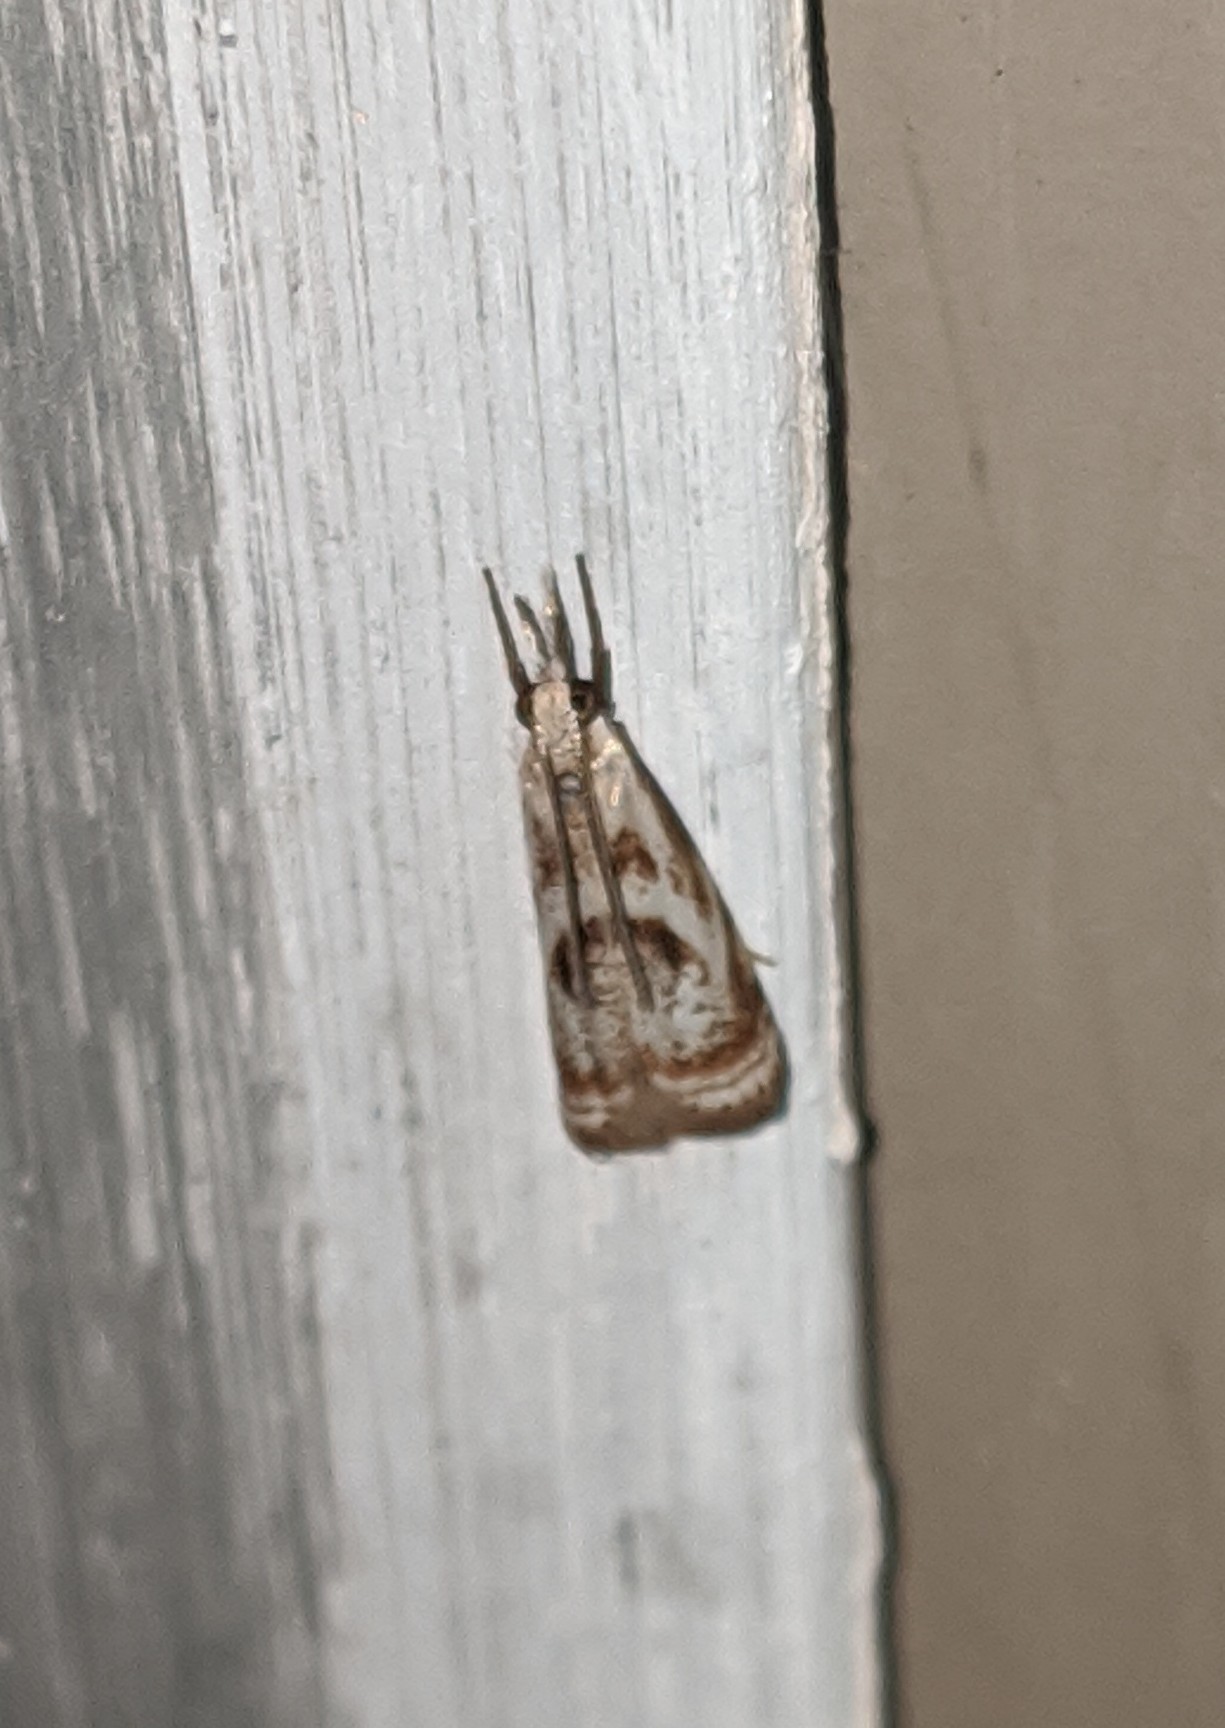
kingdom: Animalia
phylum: Arthropoda
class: Insecta
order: Lepidoptera
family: Crambidae
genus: Microcrambus
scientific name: Microcrambus elegans
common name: Elegant grass-veneer
